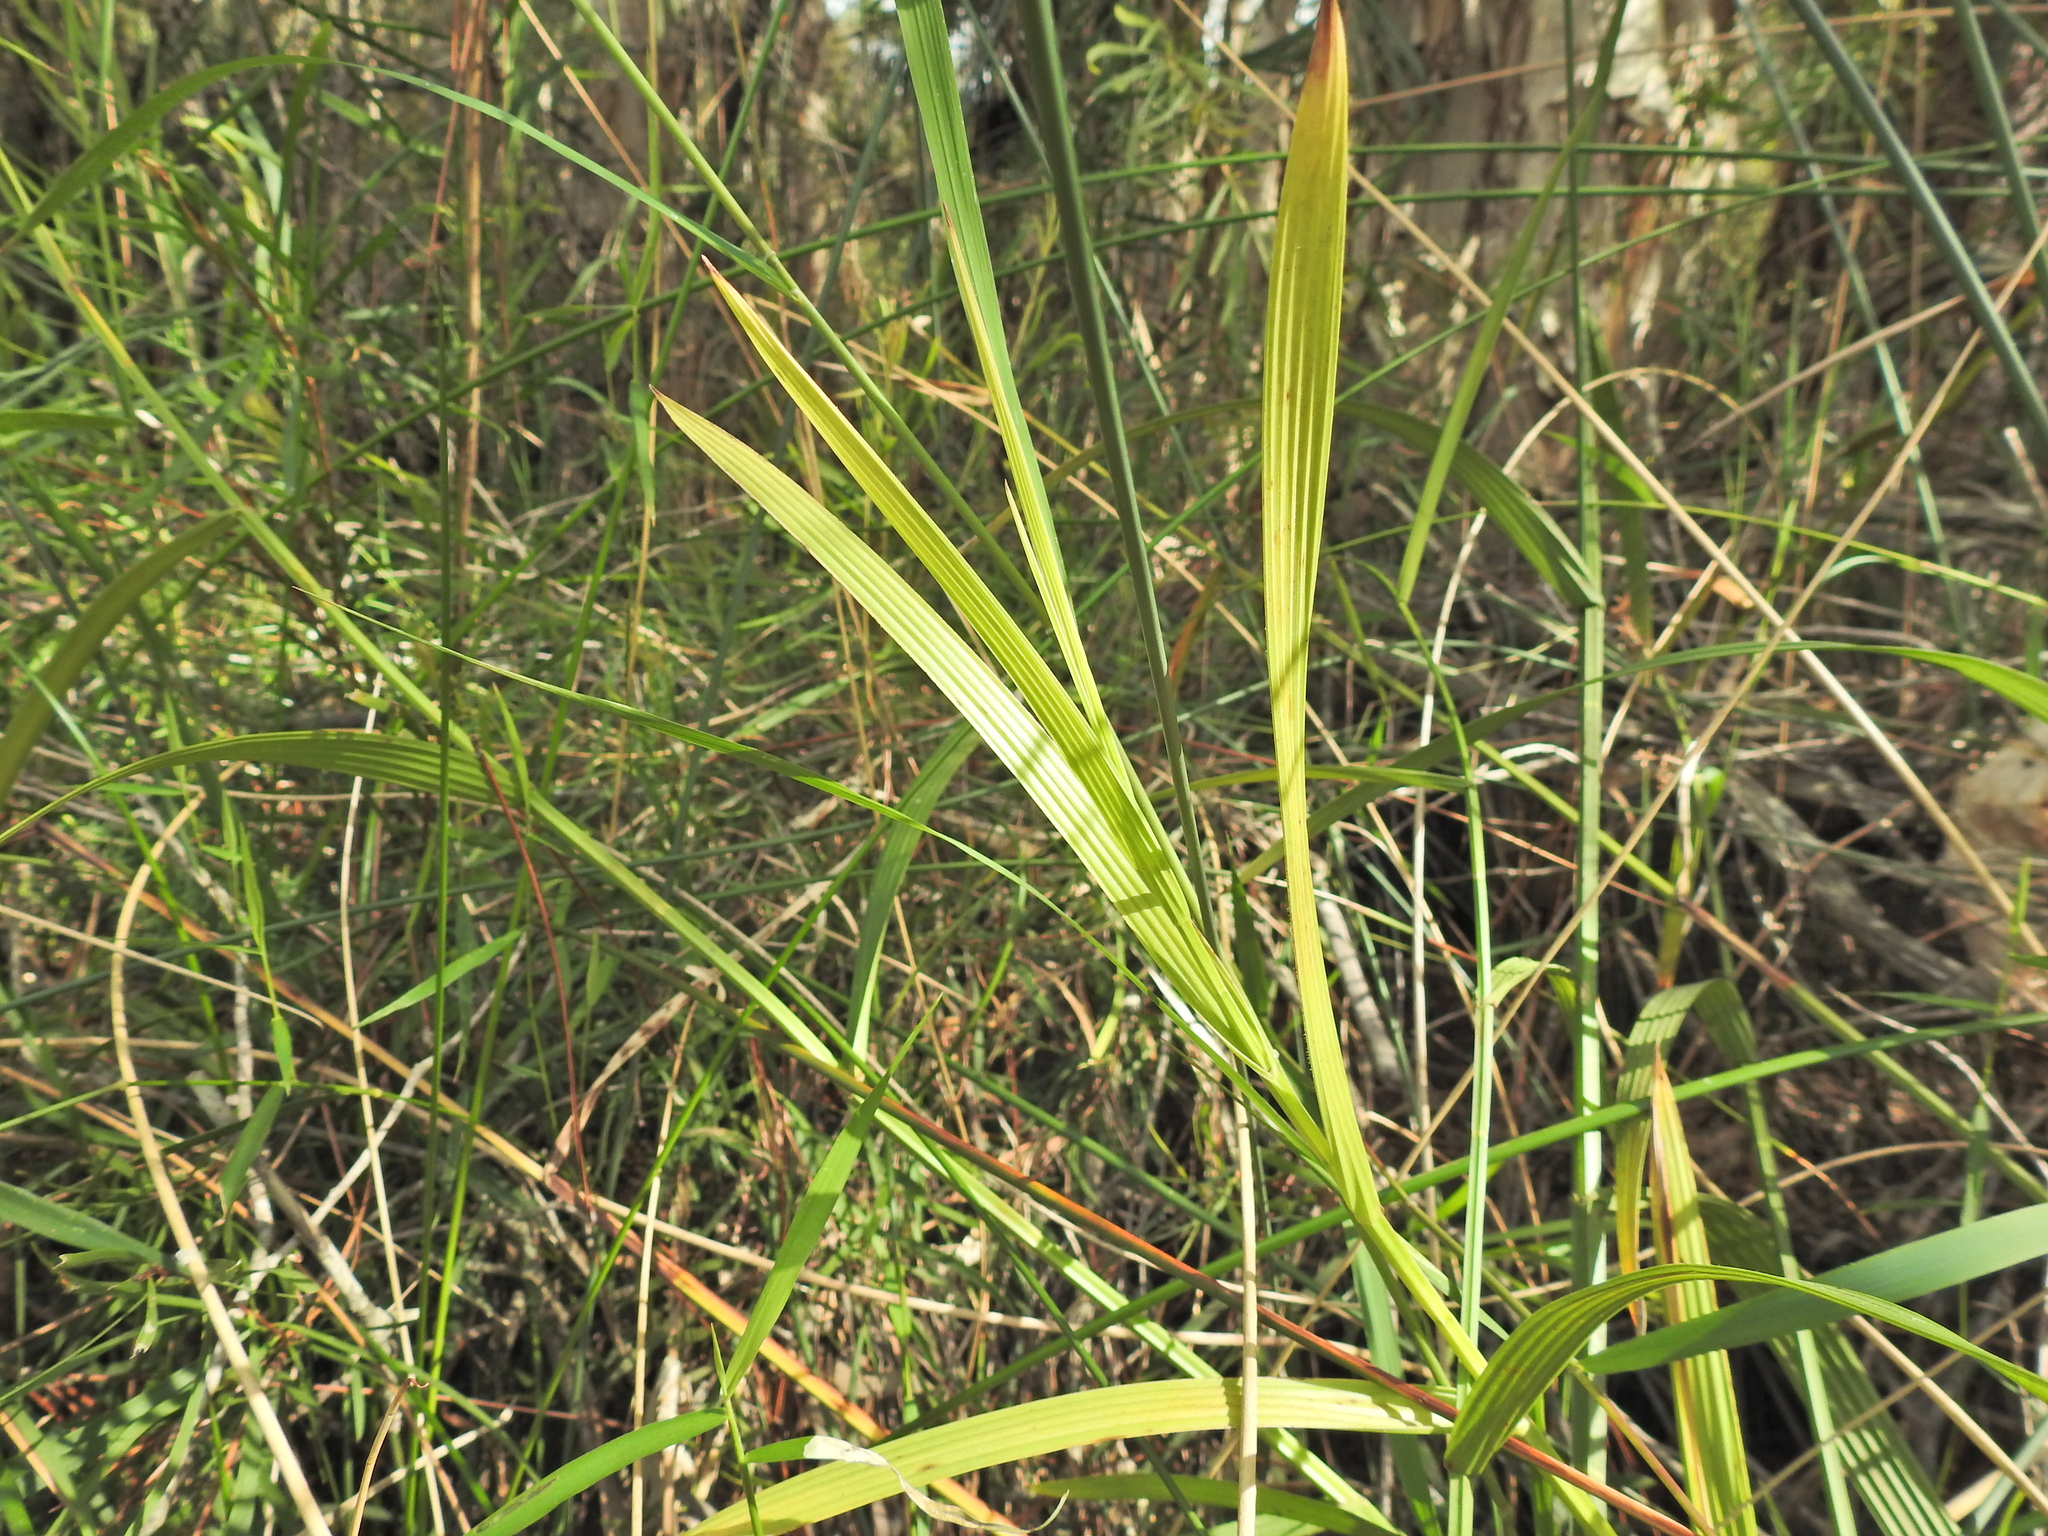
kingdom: Plantae
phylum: Tracheophyta
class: Liliopsida
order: Poales
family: Cyperaceae
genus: Fuirena
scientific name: Fuirena umbellata
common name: Yefen
